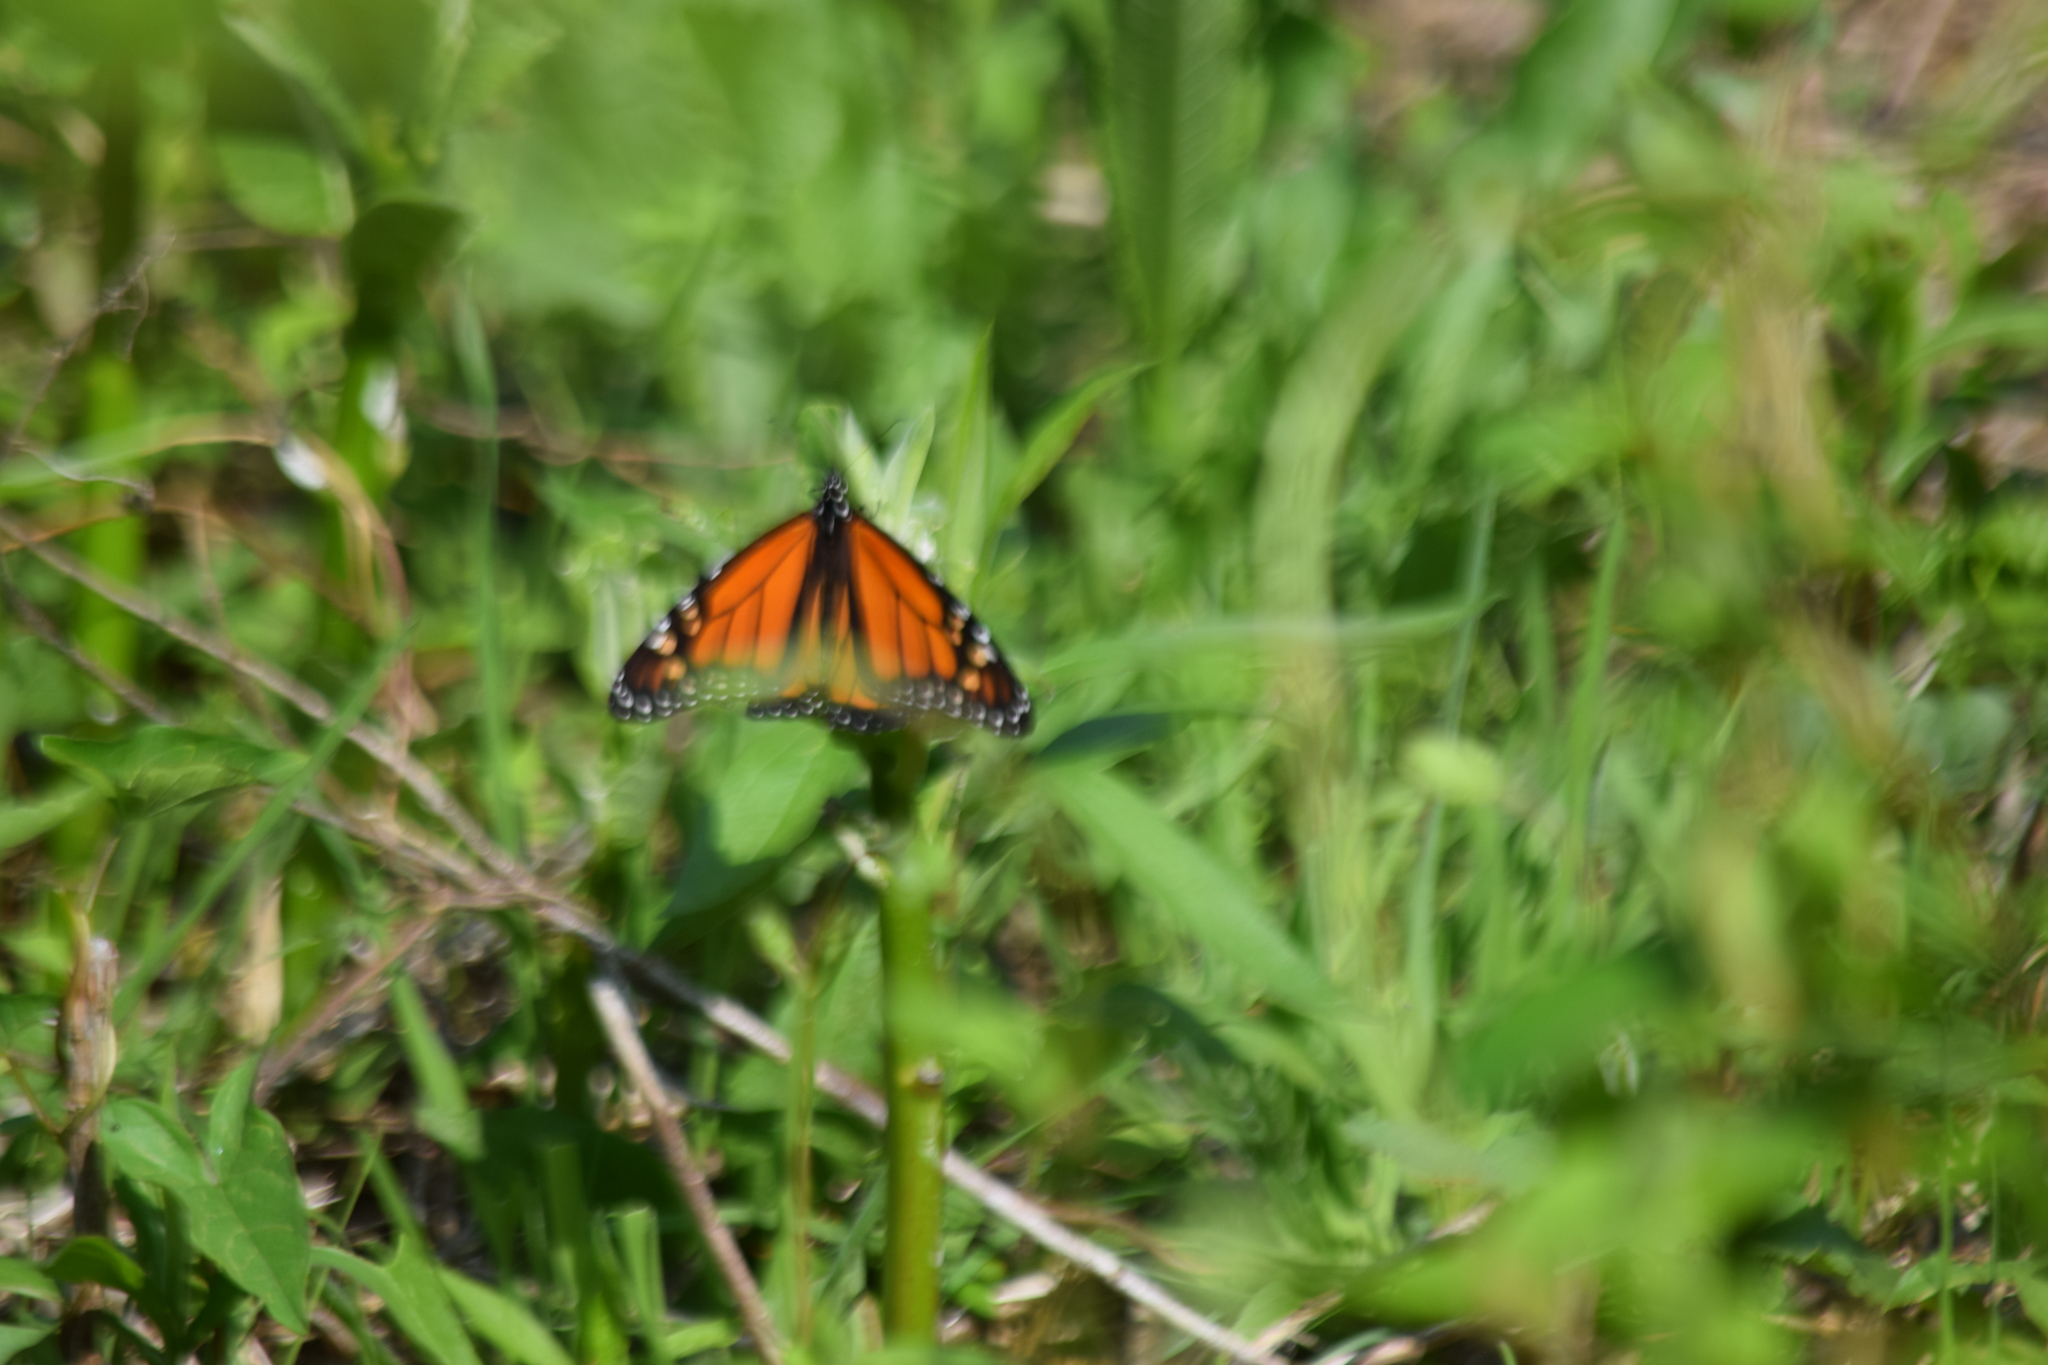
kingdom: Animalia
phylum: Arthropoda
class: Insecta
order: Lepidoptera
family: Nymphalidae
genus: Danaus
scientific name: Danaus plexippus
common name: Monarch
